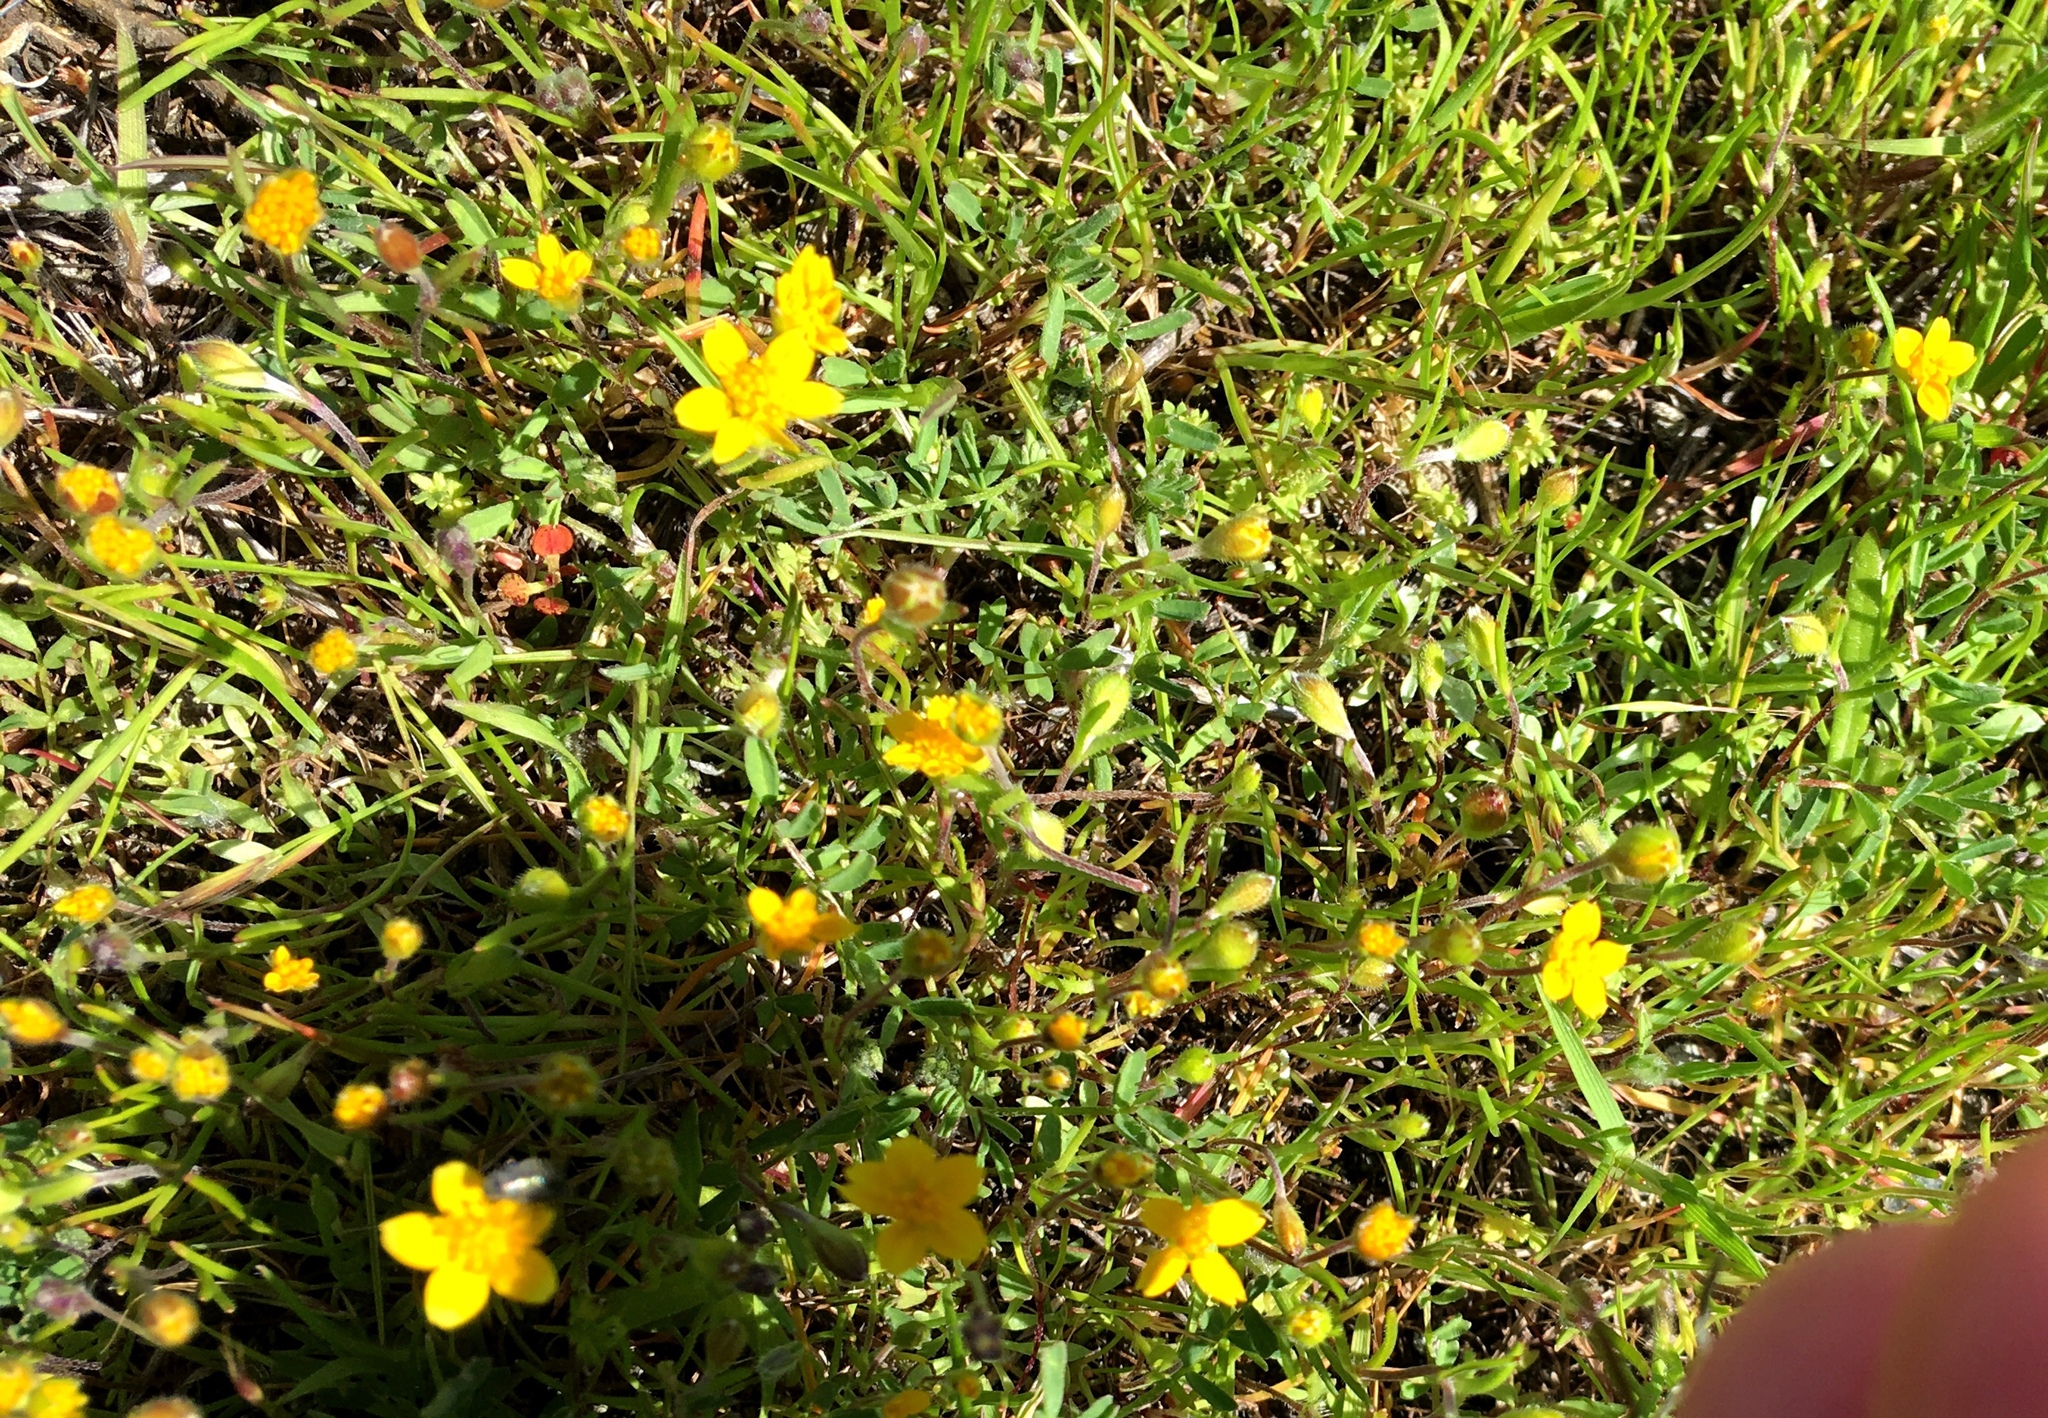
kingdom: Plantae
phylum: Tracheophyta
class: Magnoliopsida
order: Asterales
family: Asteraceae
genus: Lasthenia
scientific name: Lasthenia californica
